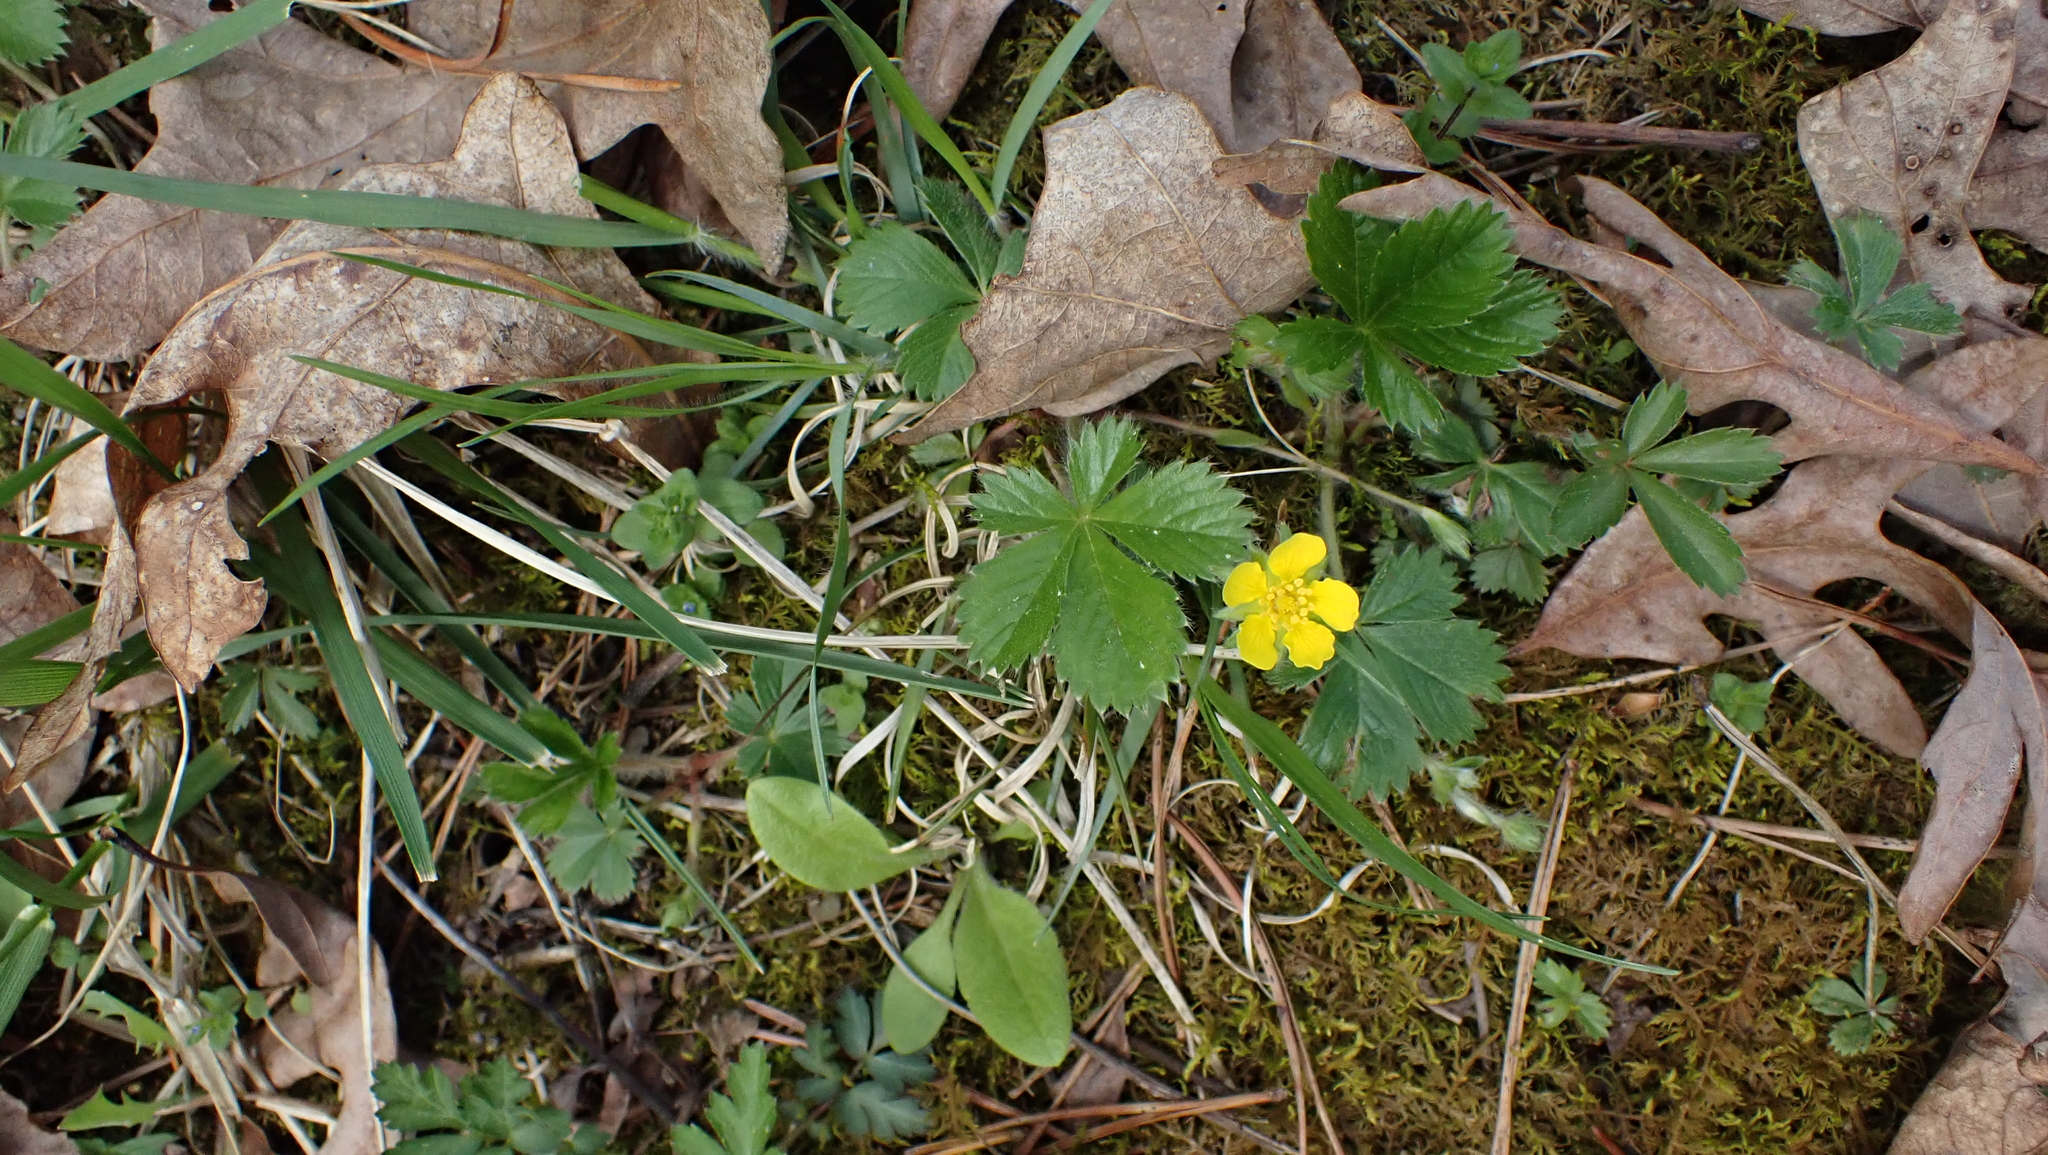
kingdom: Plantae
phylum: Tracheophyta
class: Magnoliopsida
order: Rosales
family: Rosaceae
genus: Potentilla
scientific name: Potentilla canadensis
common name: Canada cinquefoil
